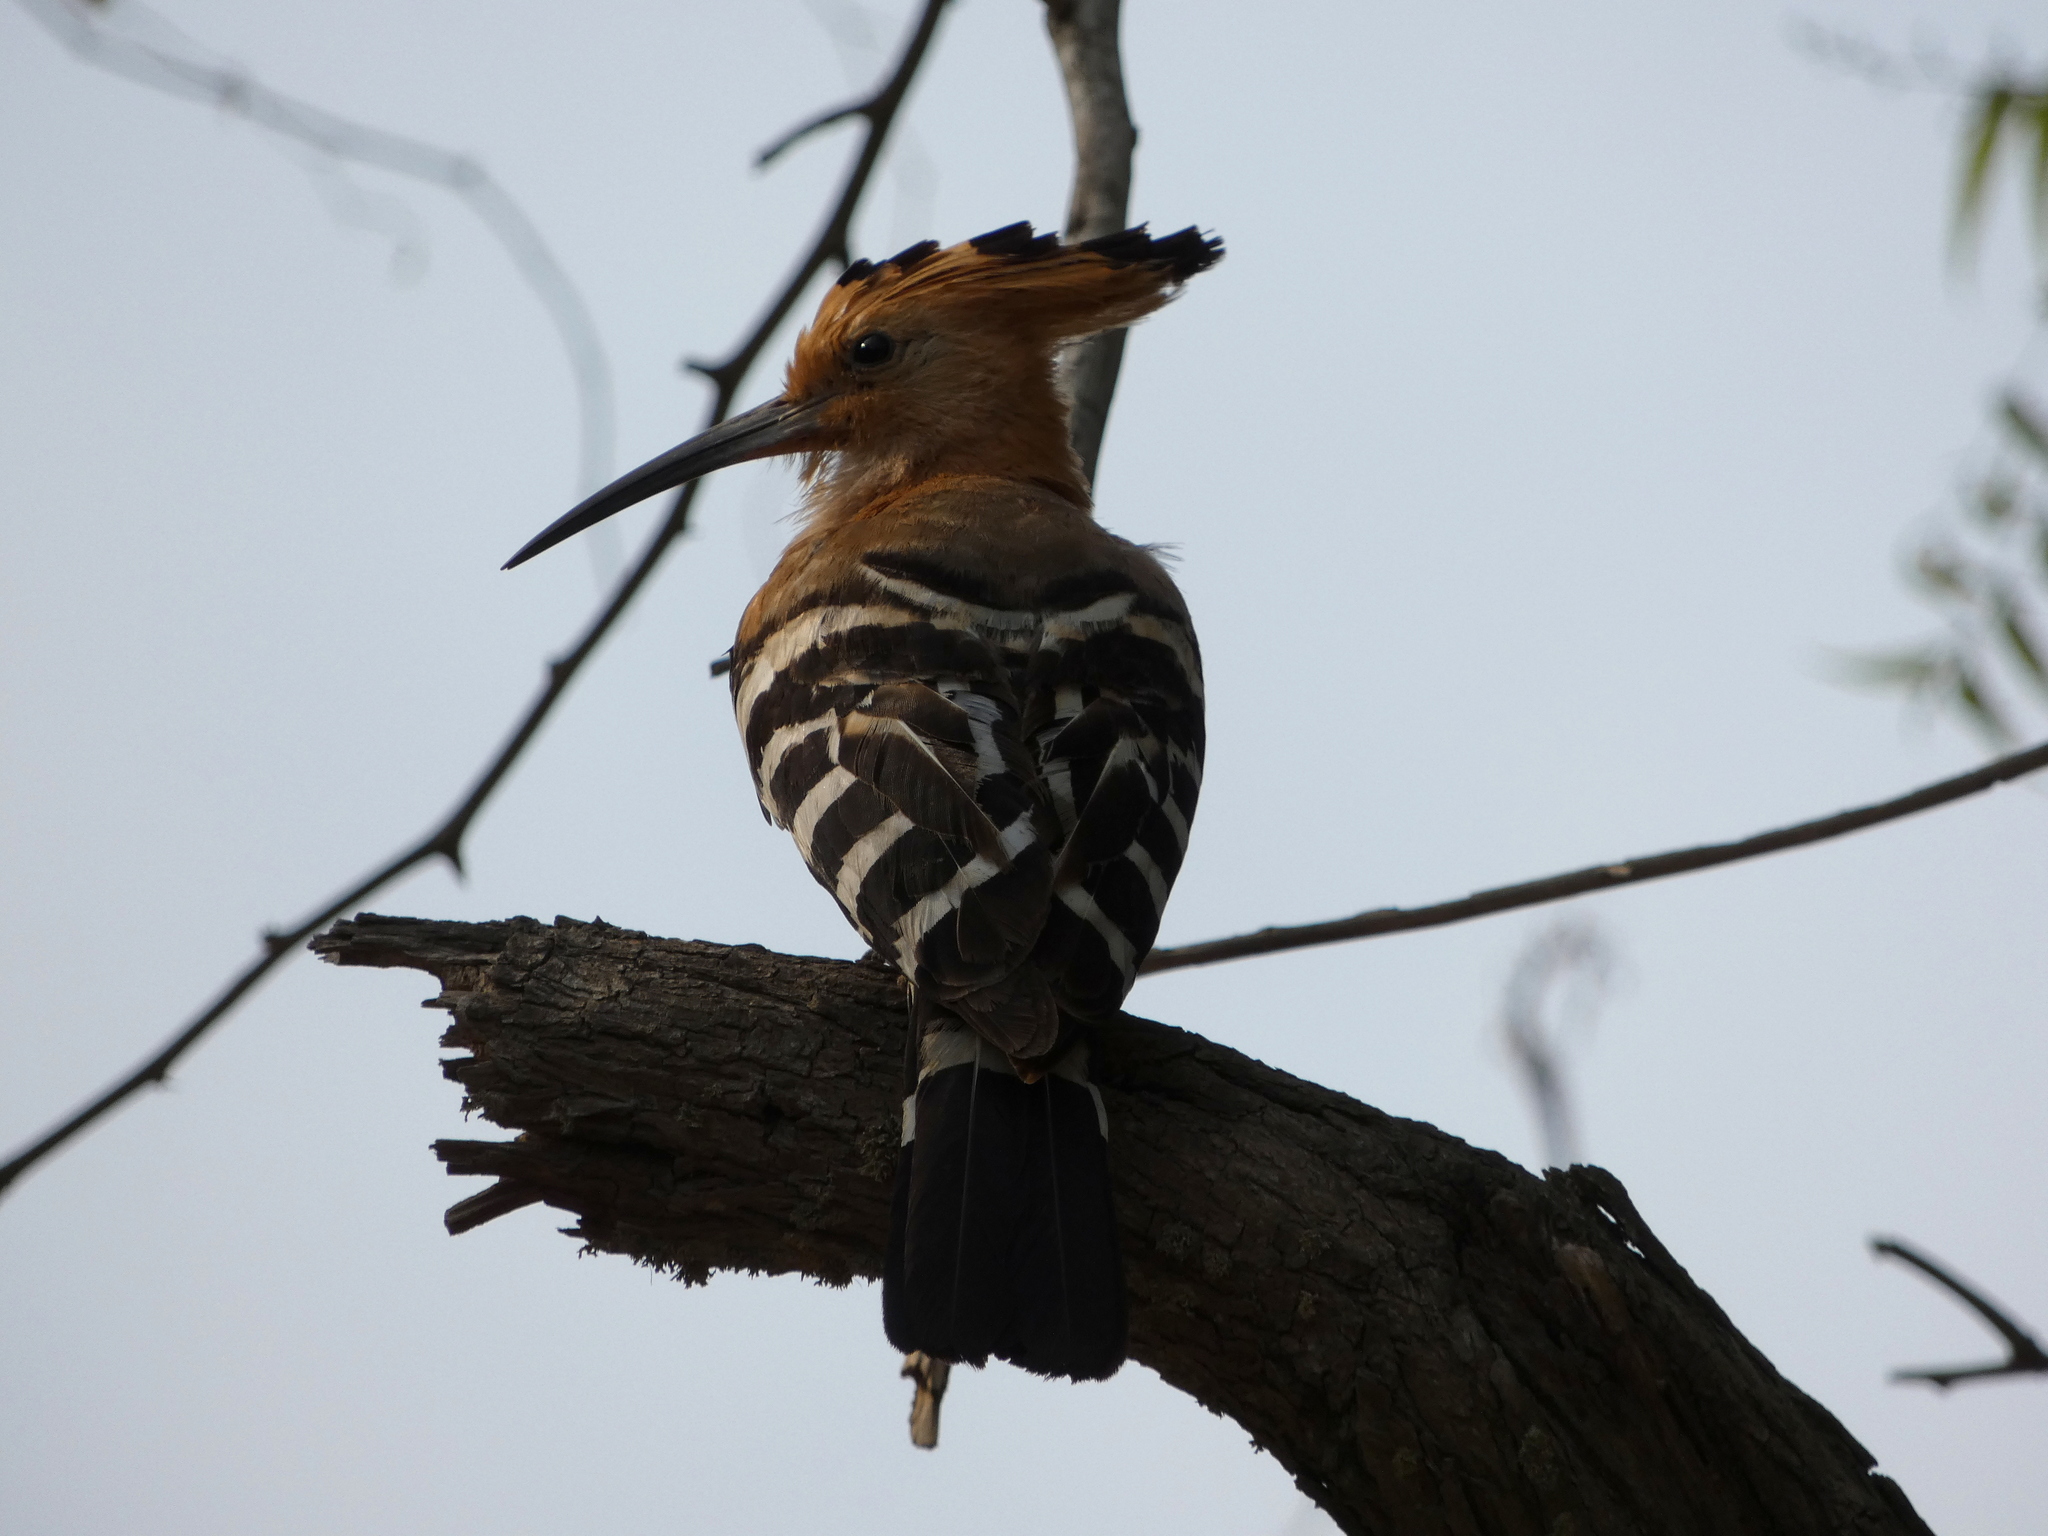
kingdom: Animalia
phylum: Chordata
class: Aves
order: Bucerotiformes
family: Upupidae
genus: Upupa
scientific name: Upupa marginata
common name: Madagascar hoopoe
